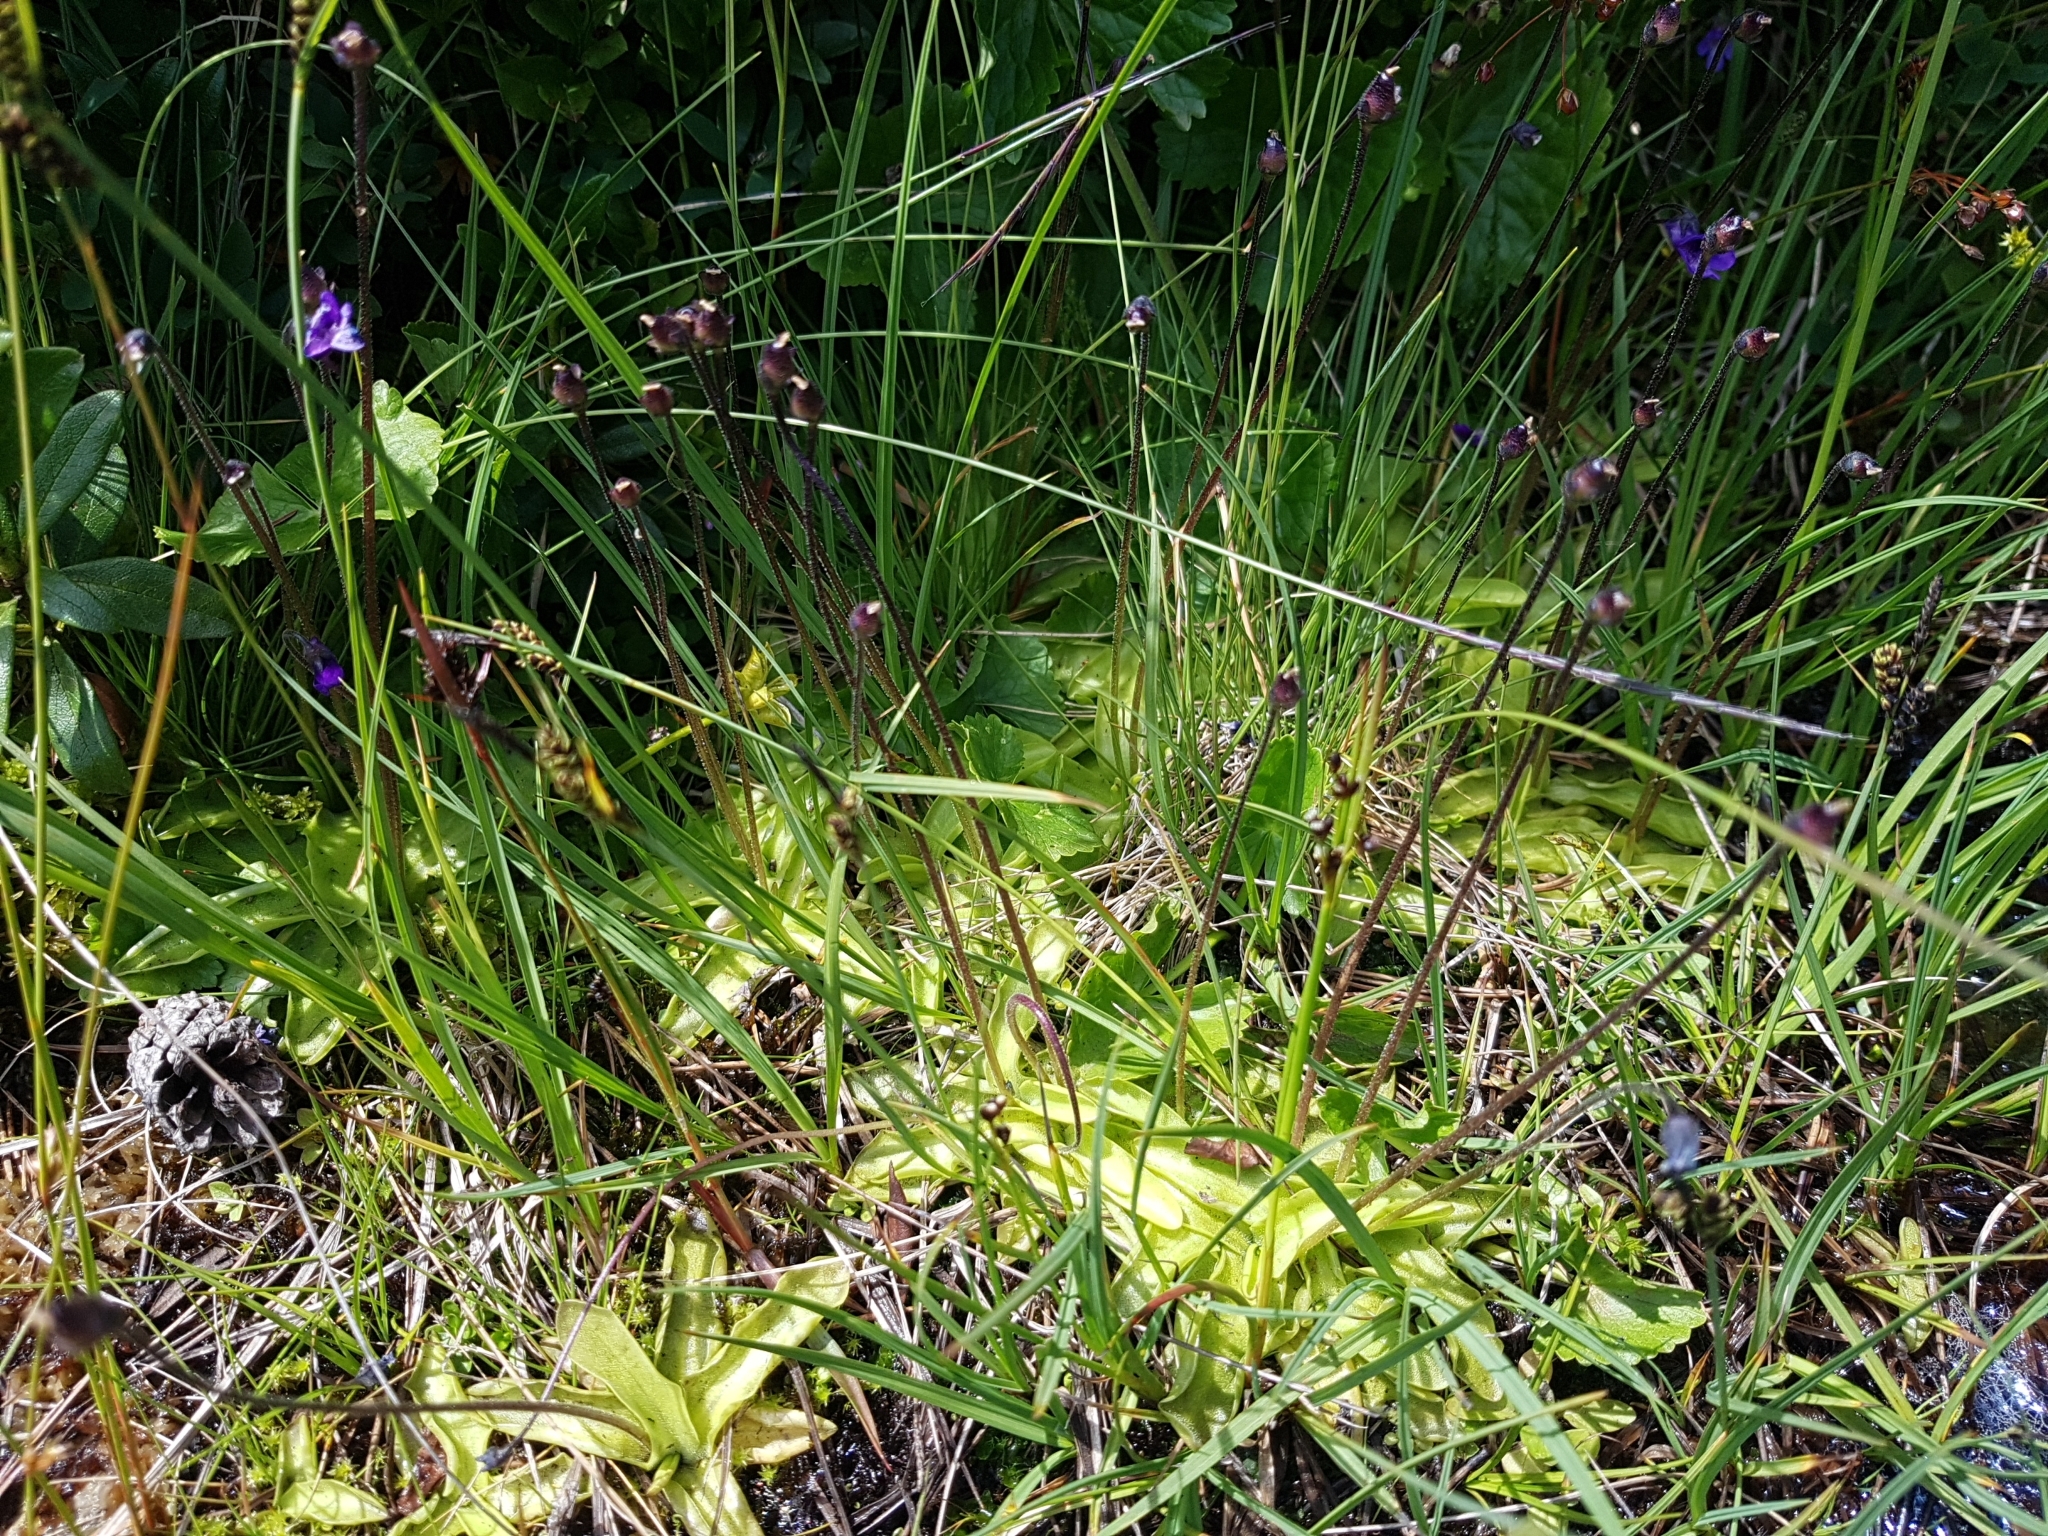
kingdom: Plantae
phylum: Tracheophyta
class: Magnoliopsida
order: Lamiales
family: Lentibulariaceae
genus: Pinguicula
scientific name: Pinguicula vulgaris
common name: Common butterwort
